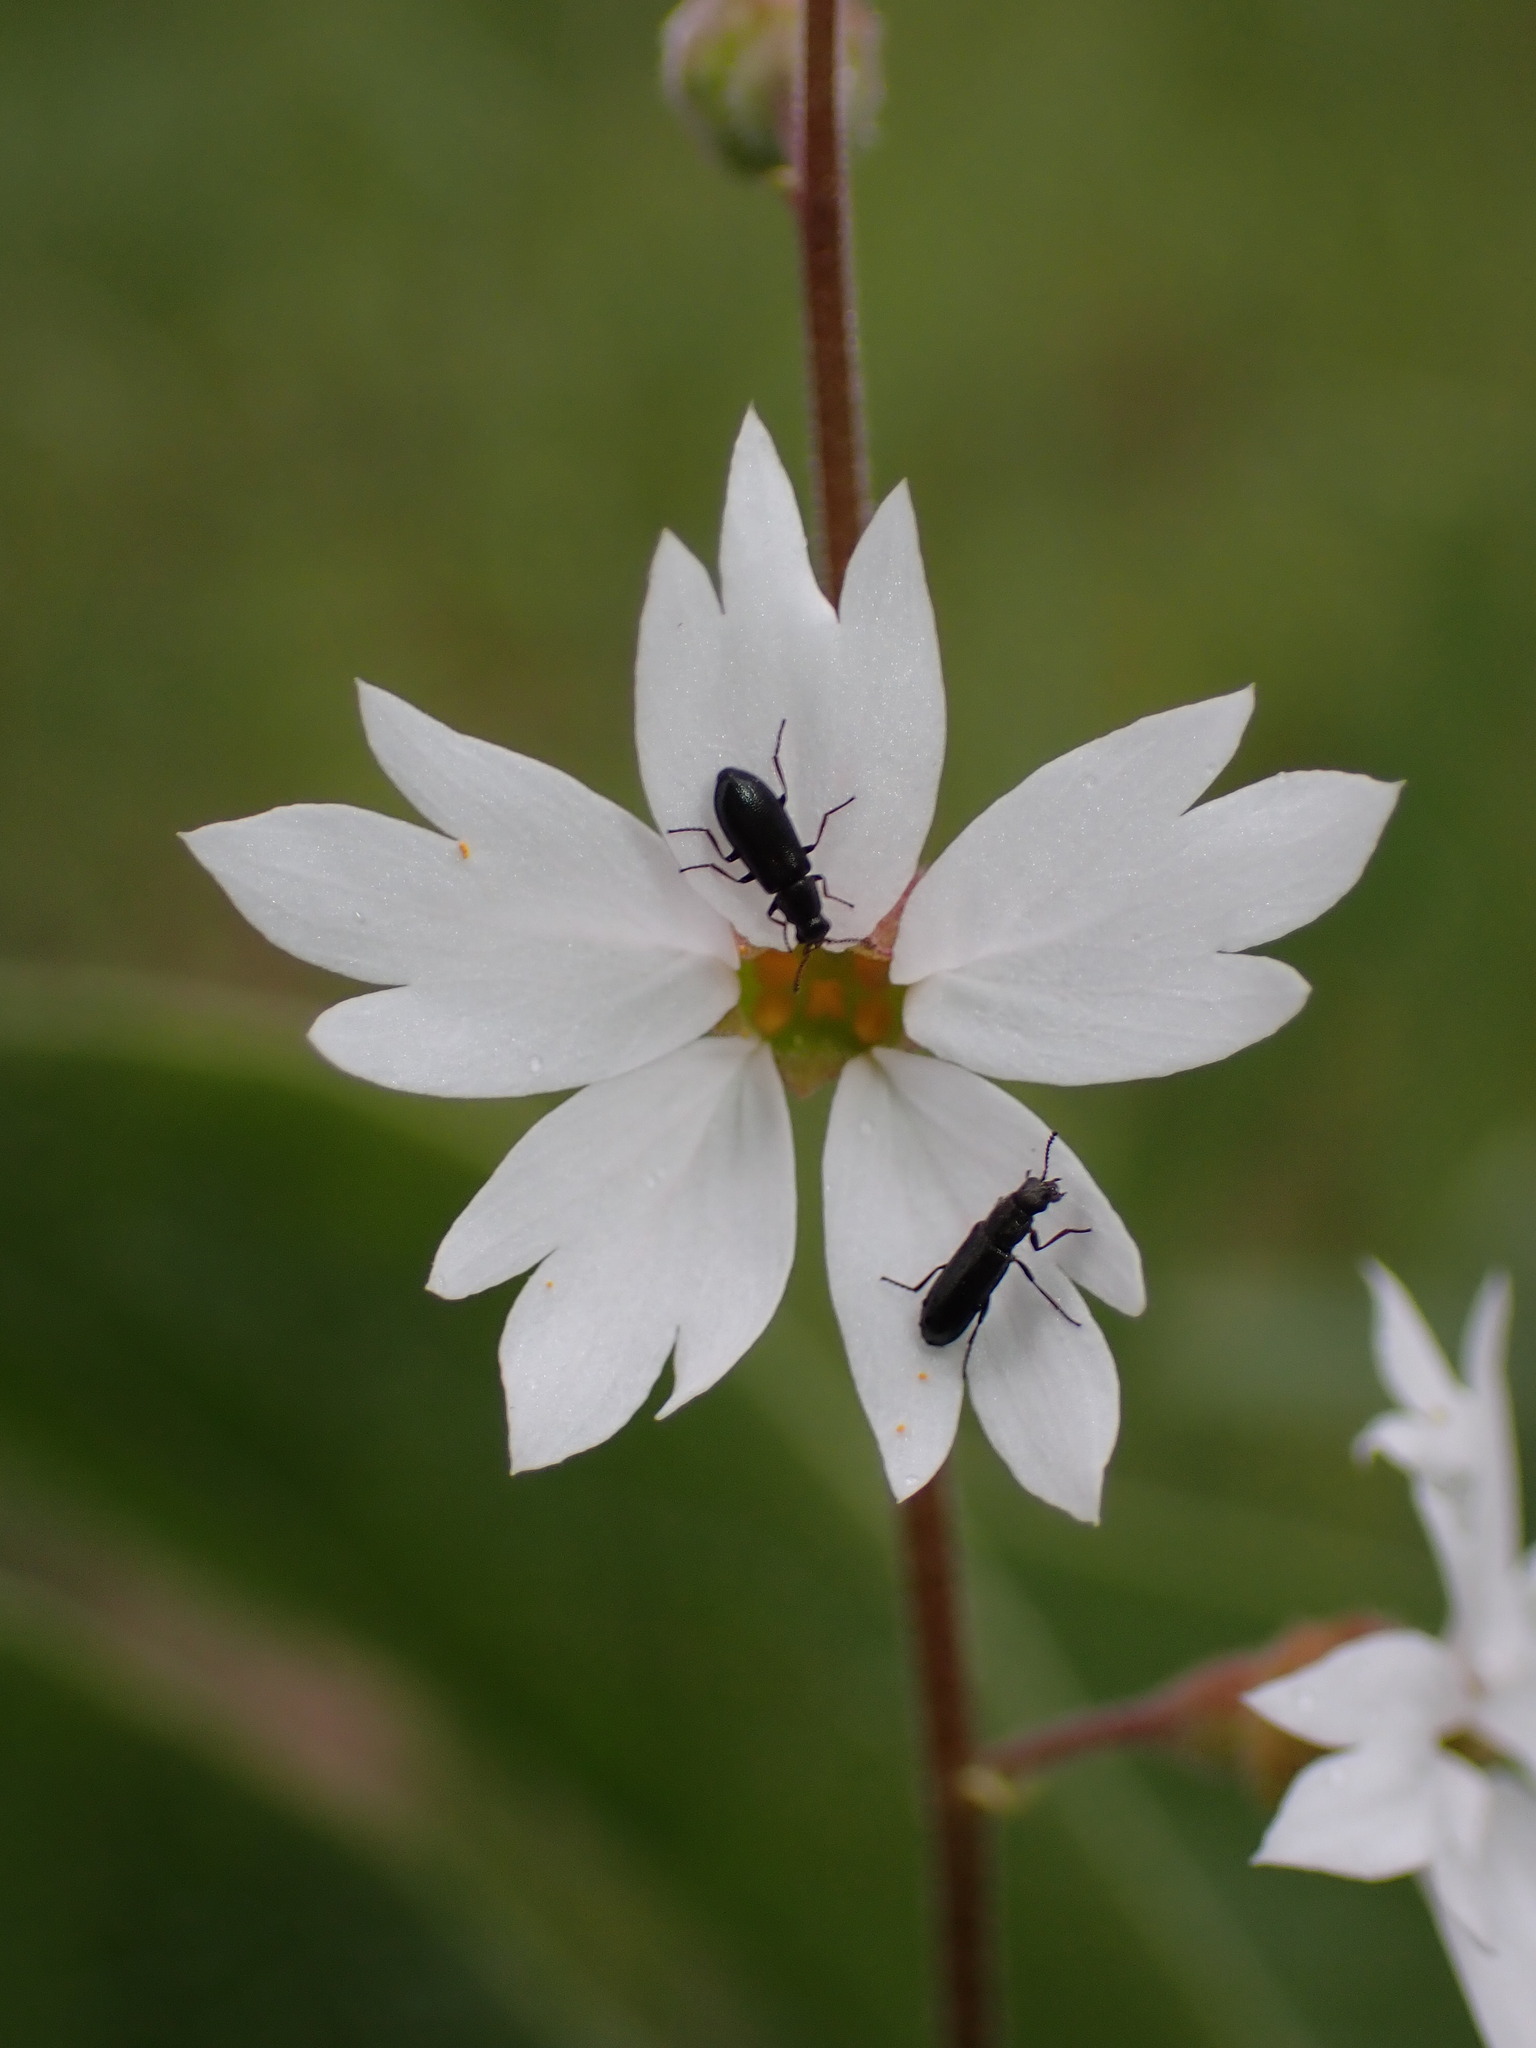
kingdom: Plantae
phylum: Tracheophyta
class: Magnoliopsida
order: Saxifragales
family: Saxifragaceae
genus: Lithophragma
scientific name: Lithophragma affine
